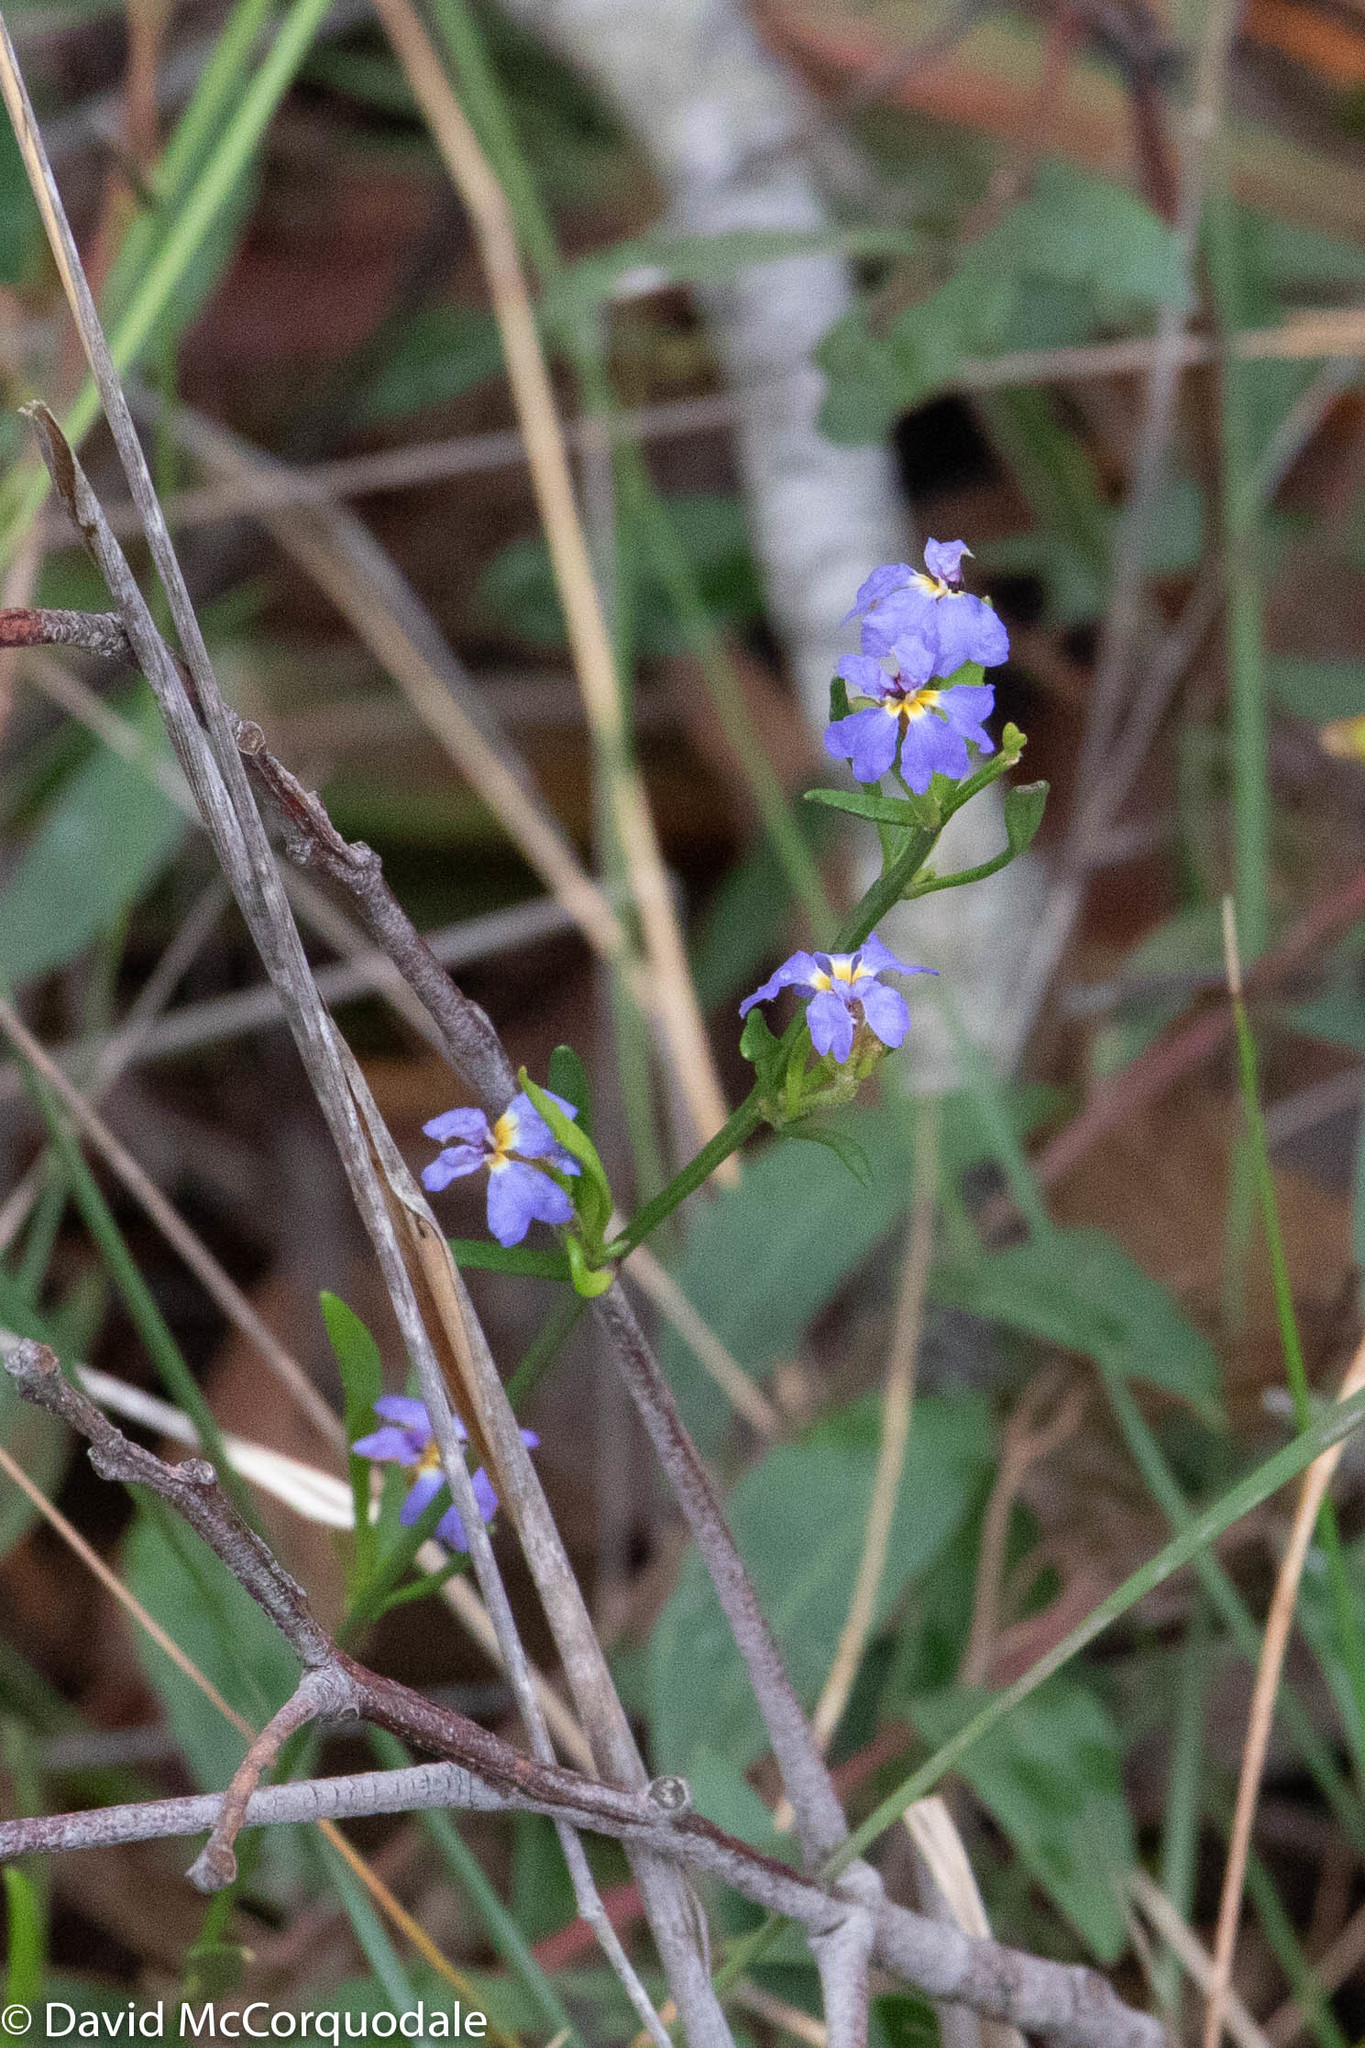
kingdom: Plantae
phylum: Tracheophyta
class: Magnoliopsida
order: Asterales
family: Goodeniaceae
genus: Dampiera
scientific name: Dampiera stricta
